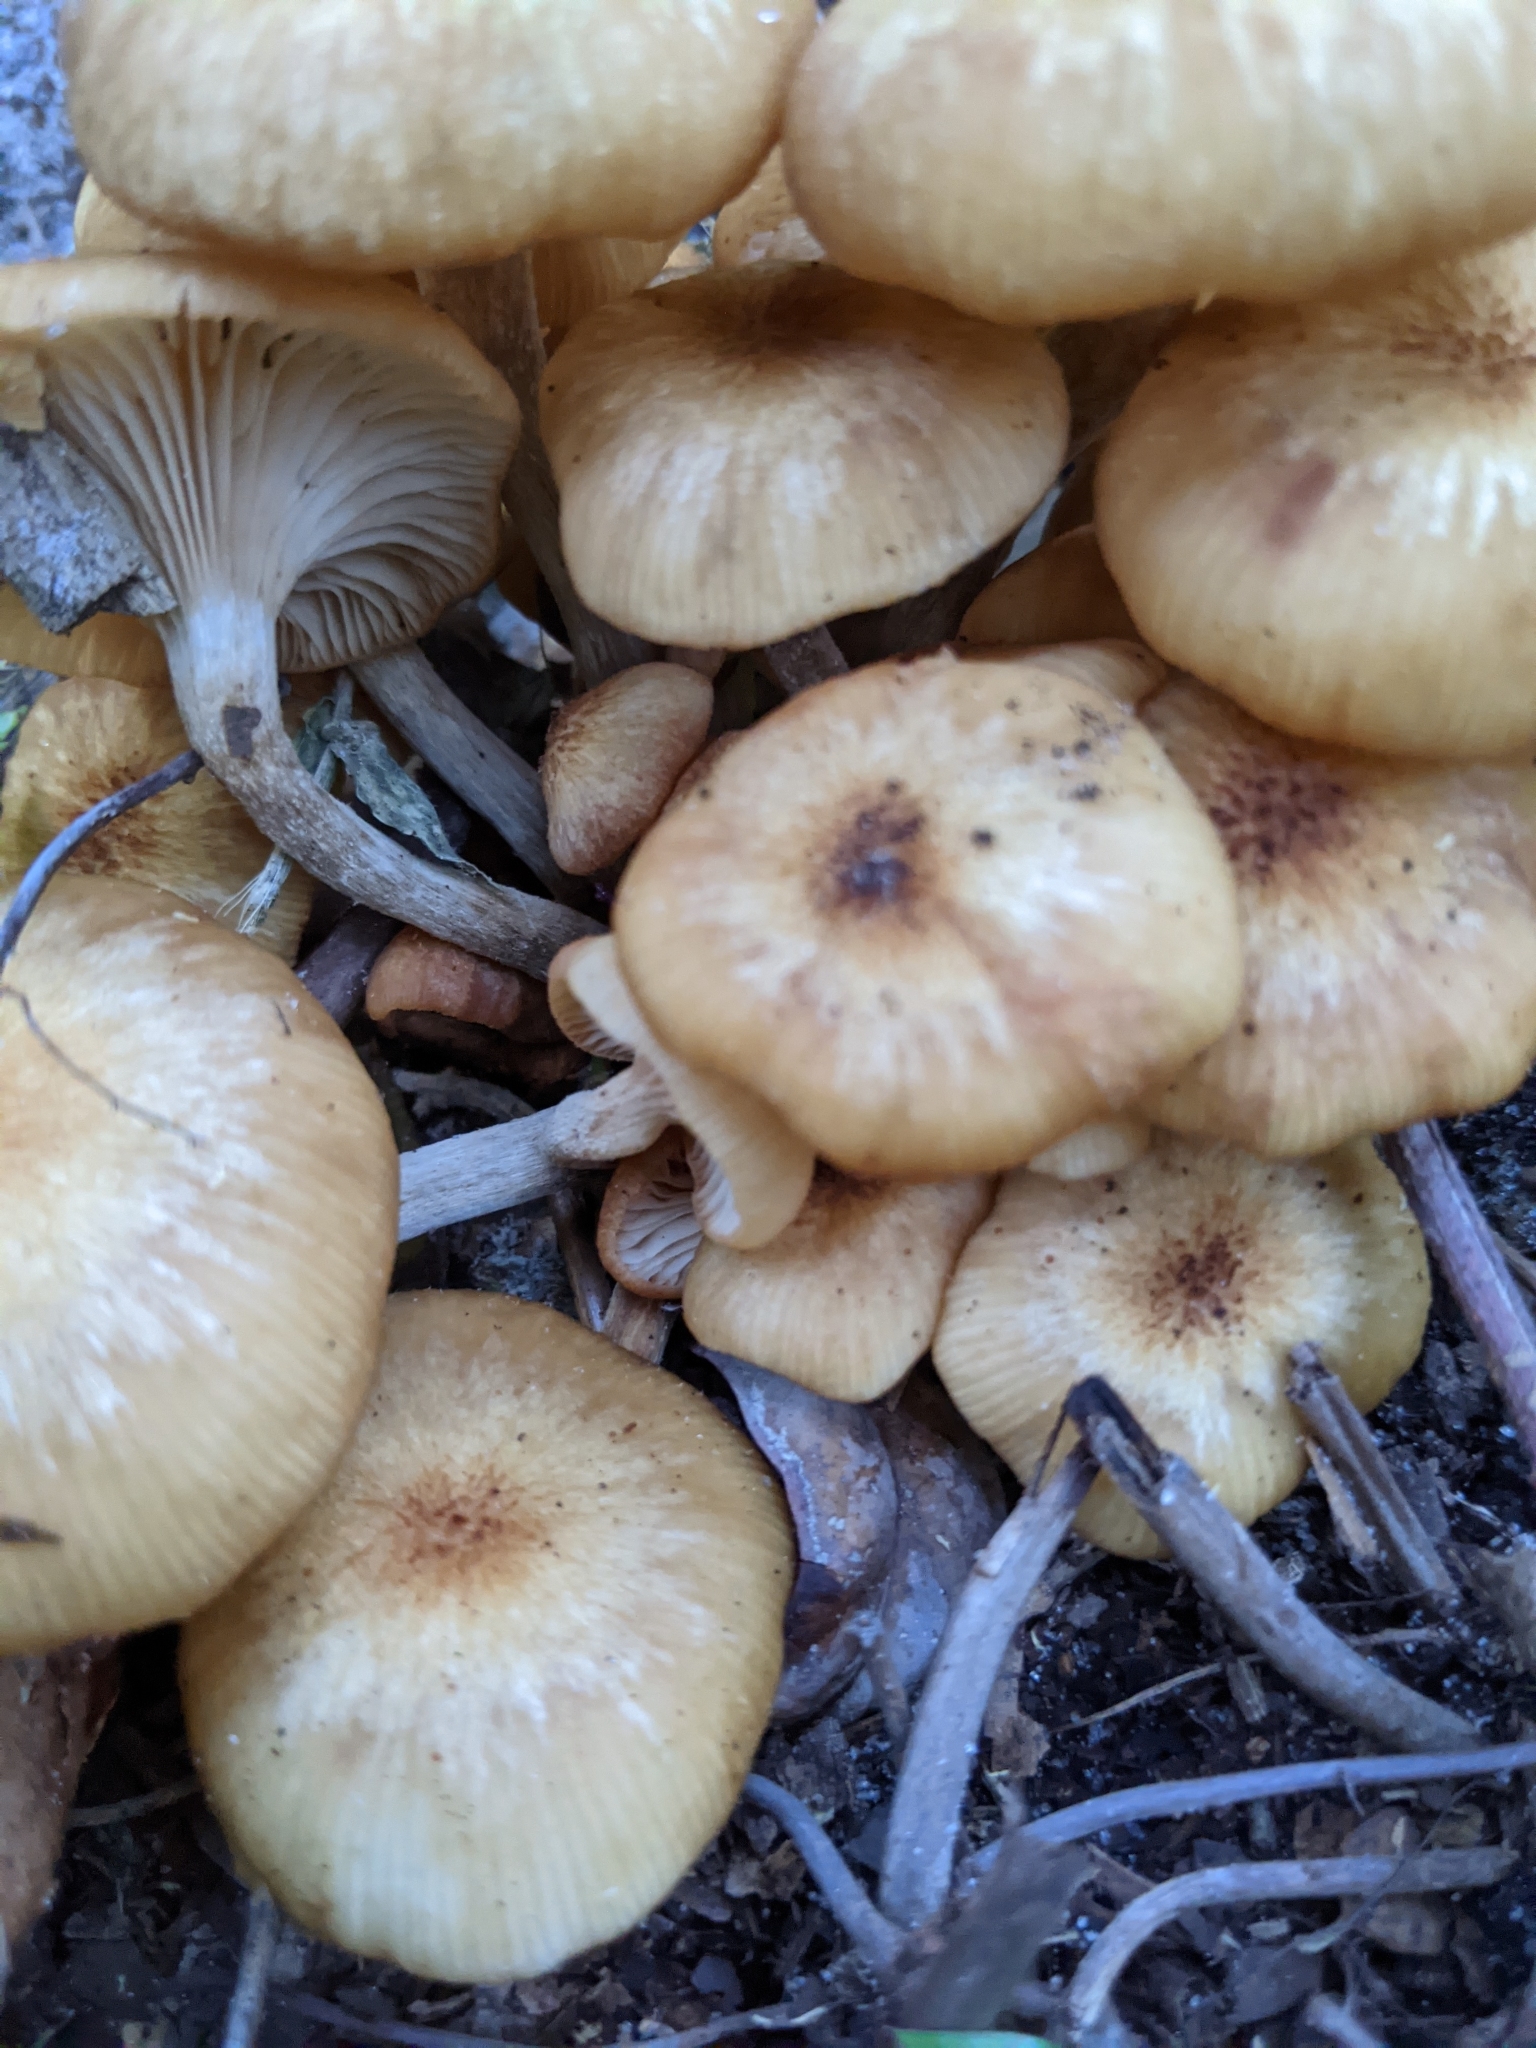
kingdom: Fungi
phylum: Basidiomycota
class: Agaricomycetes
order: Agaricales
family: Physalacriaceae
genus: Desarmillaria
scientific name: Desarmillaria caespitosa
